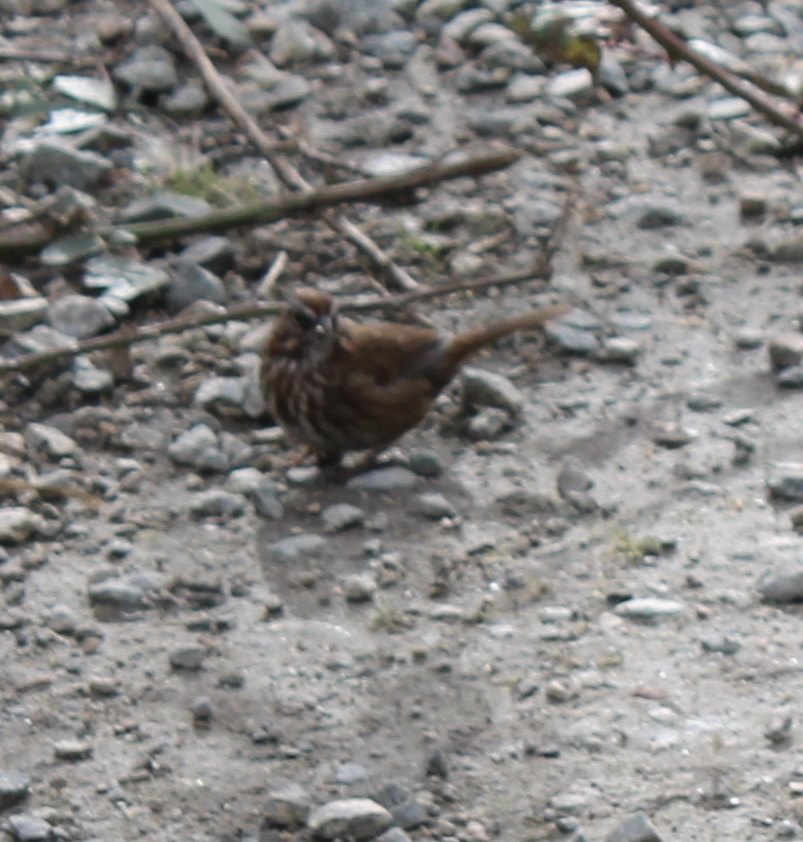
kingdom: Animalia
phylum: Chordata
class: Aves
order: Passeriformes
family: Passerellidae
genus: Melospiza
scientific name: Melospiza melodia
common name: Song sparrow
